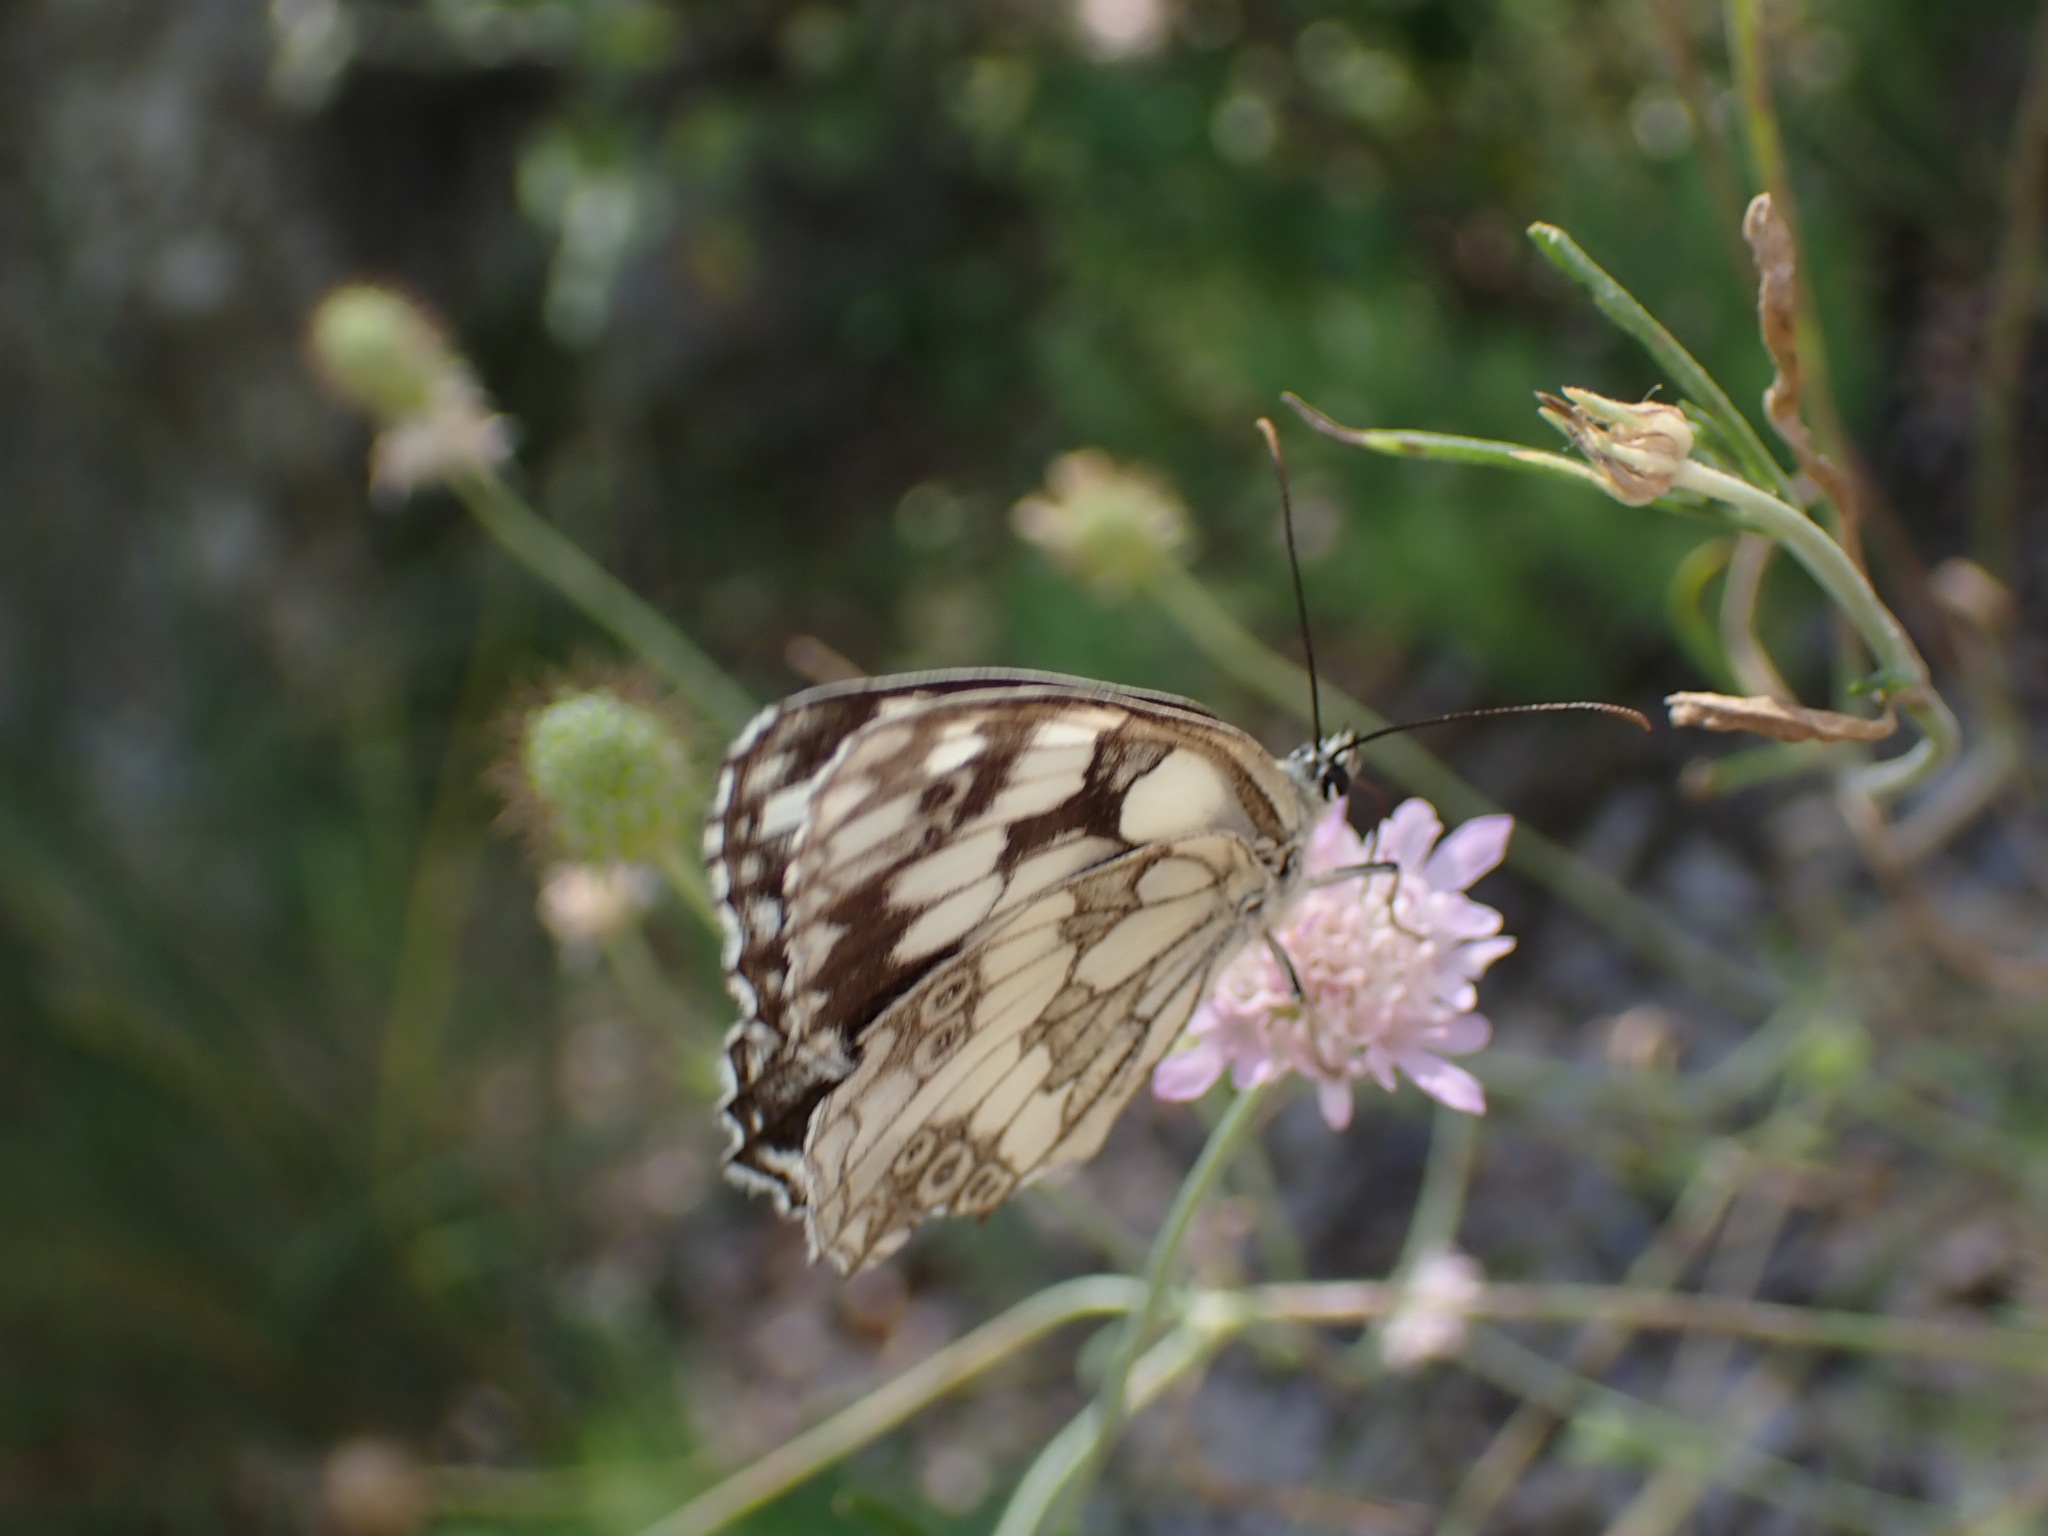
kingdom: Animalia
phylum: Arthropoda
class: Insecta
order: Lepidoptera
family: Nymphalidae
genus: Melanargia
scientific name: Melanargia galathea
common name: Marbled white
